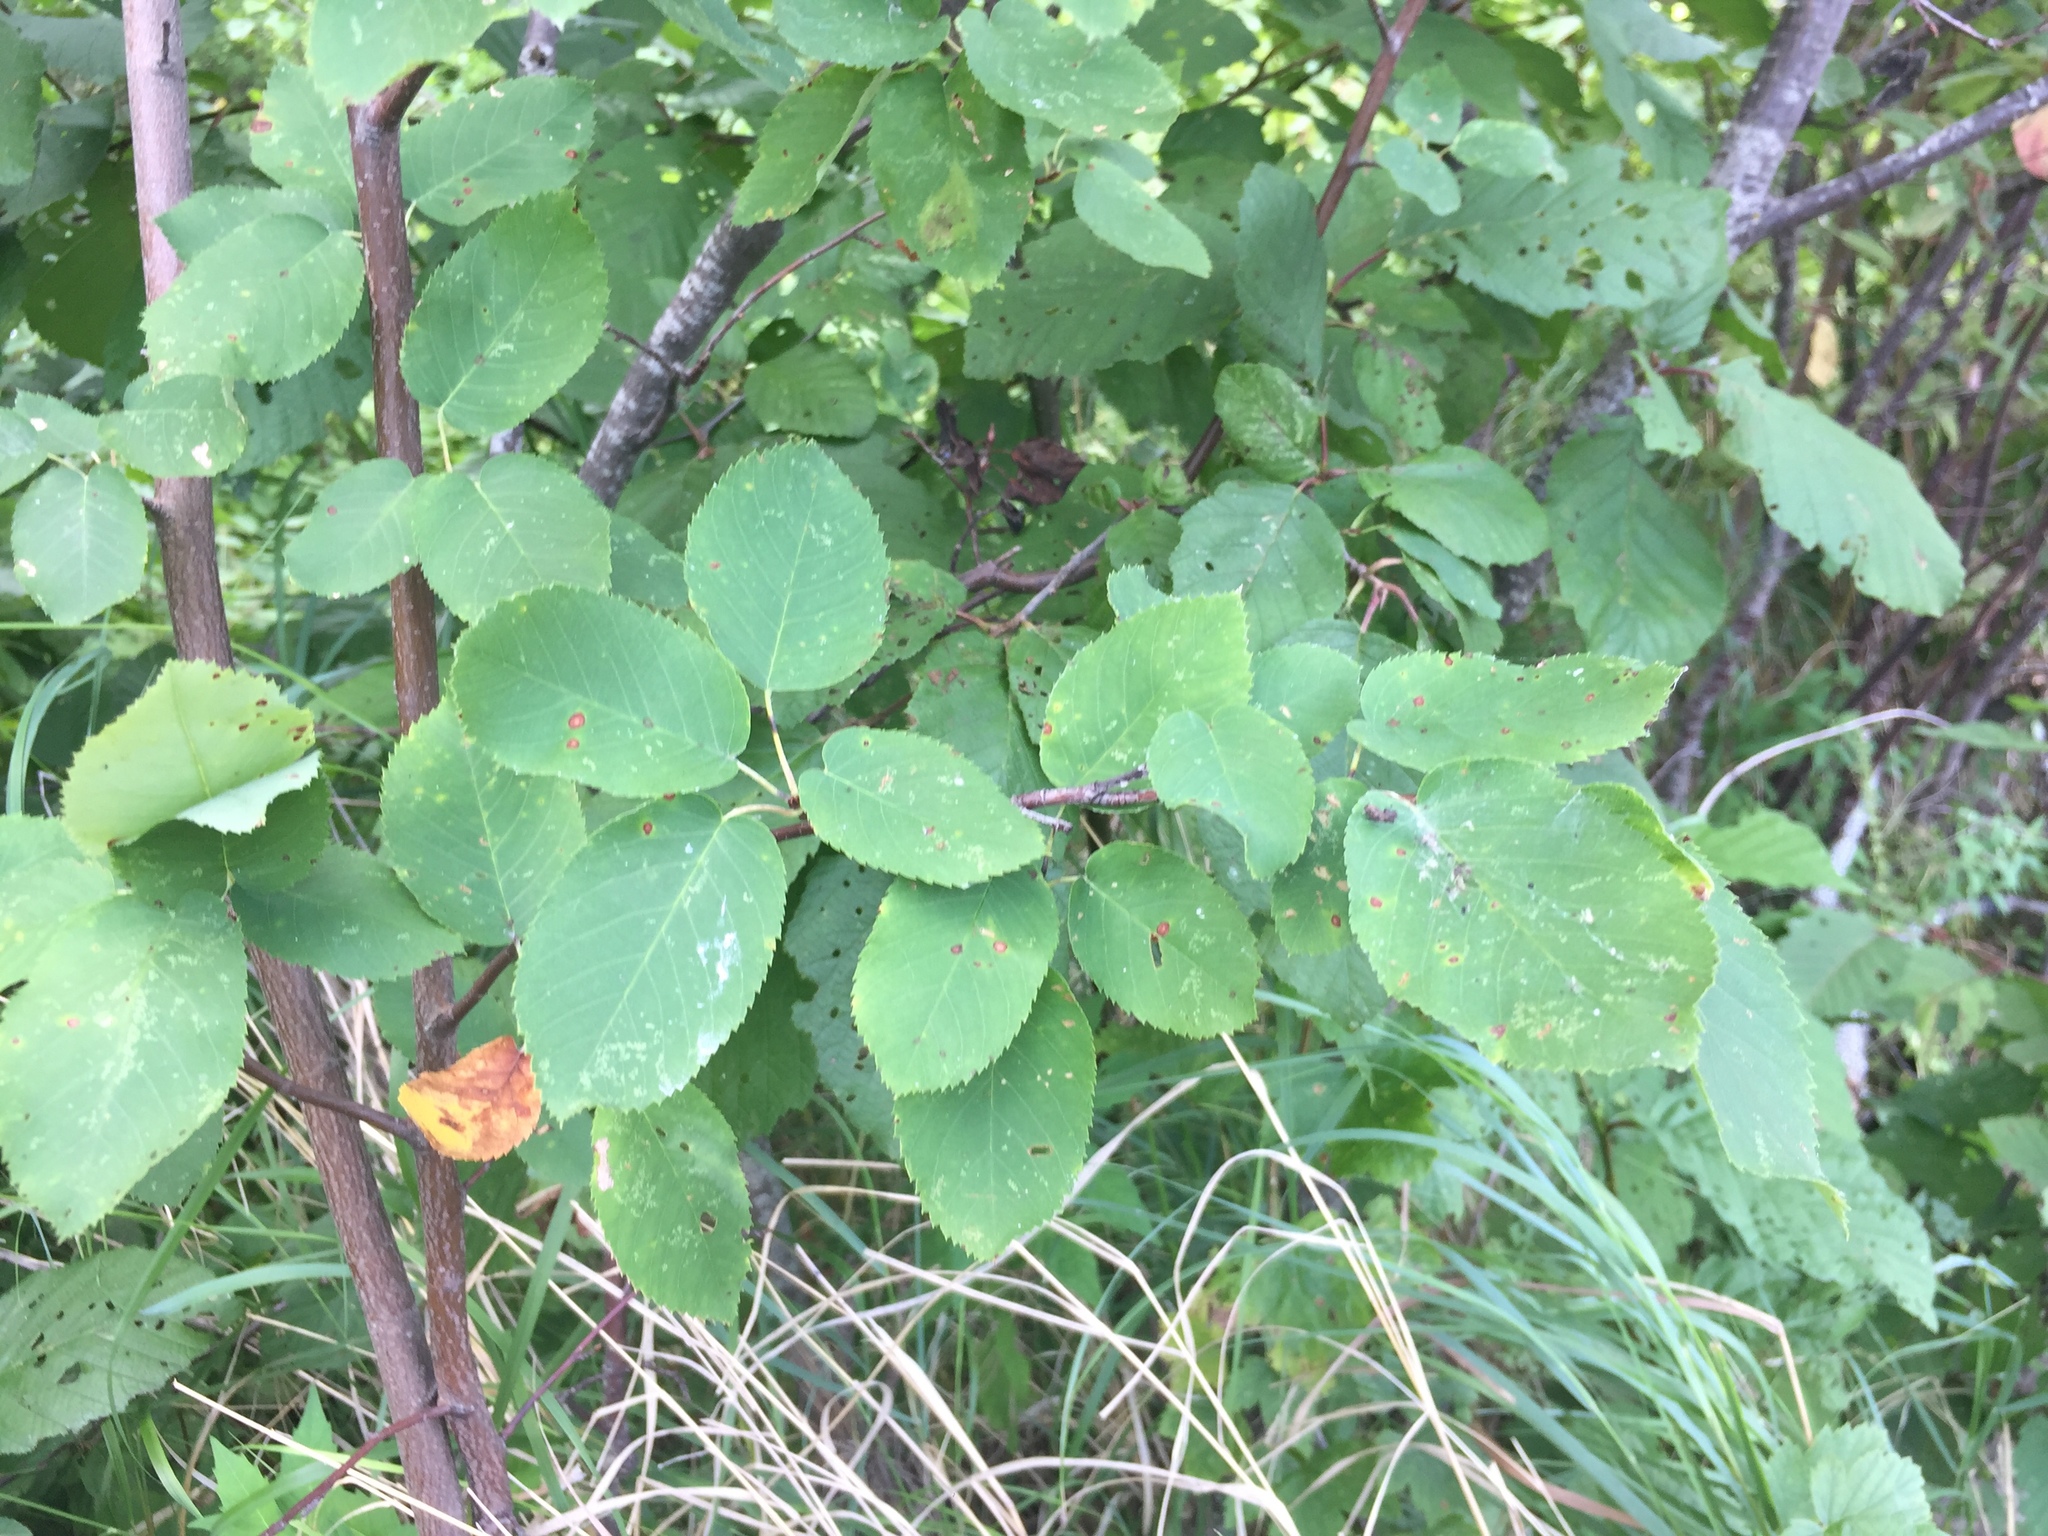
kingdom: Plantae
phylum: Tracheophyta
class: Magnoliopsida
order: Rosales
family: Rosaceae
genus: Amelanchier
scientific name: Amelanchier alnifolia
